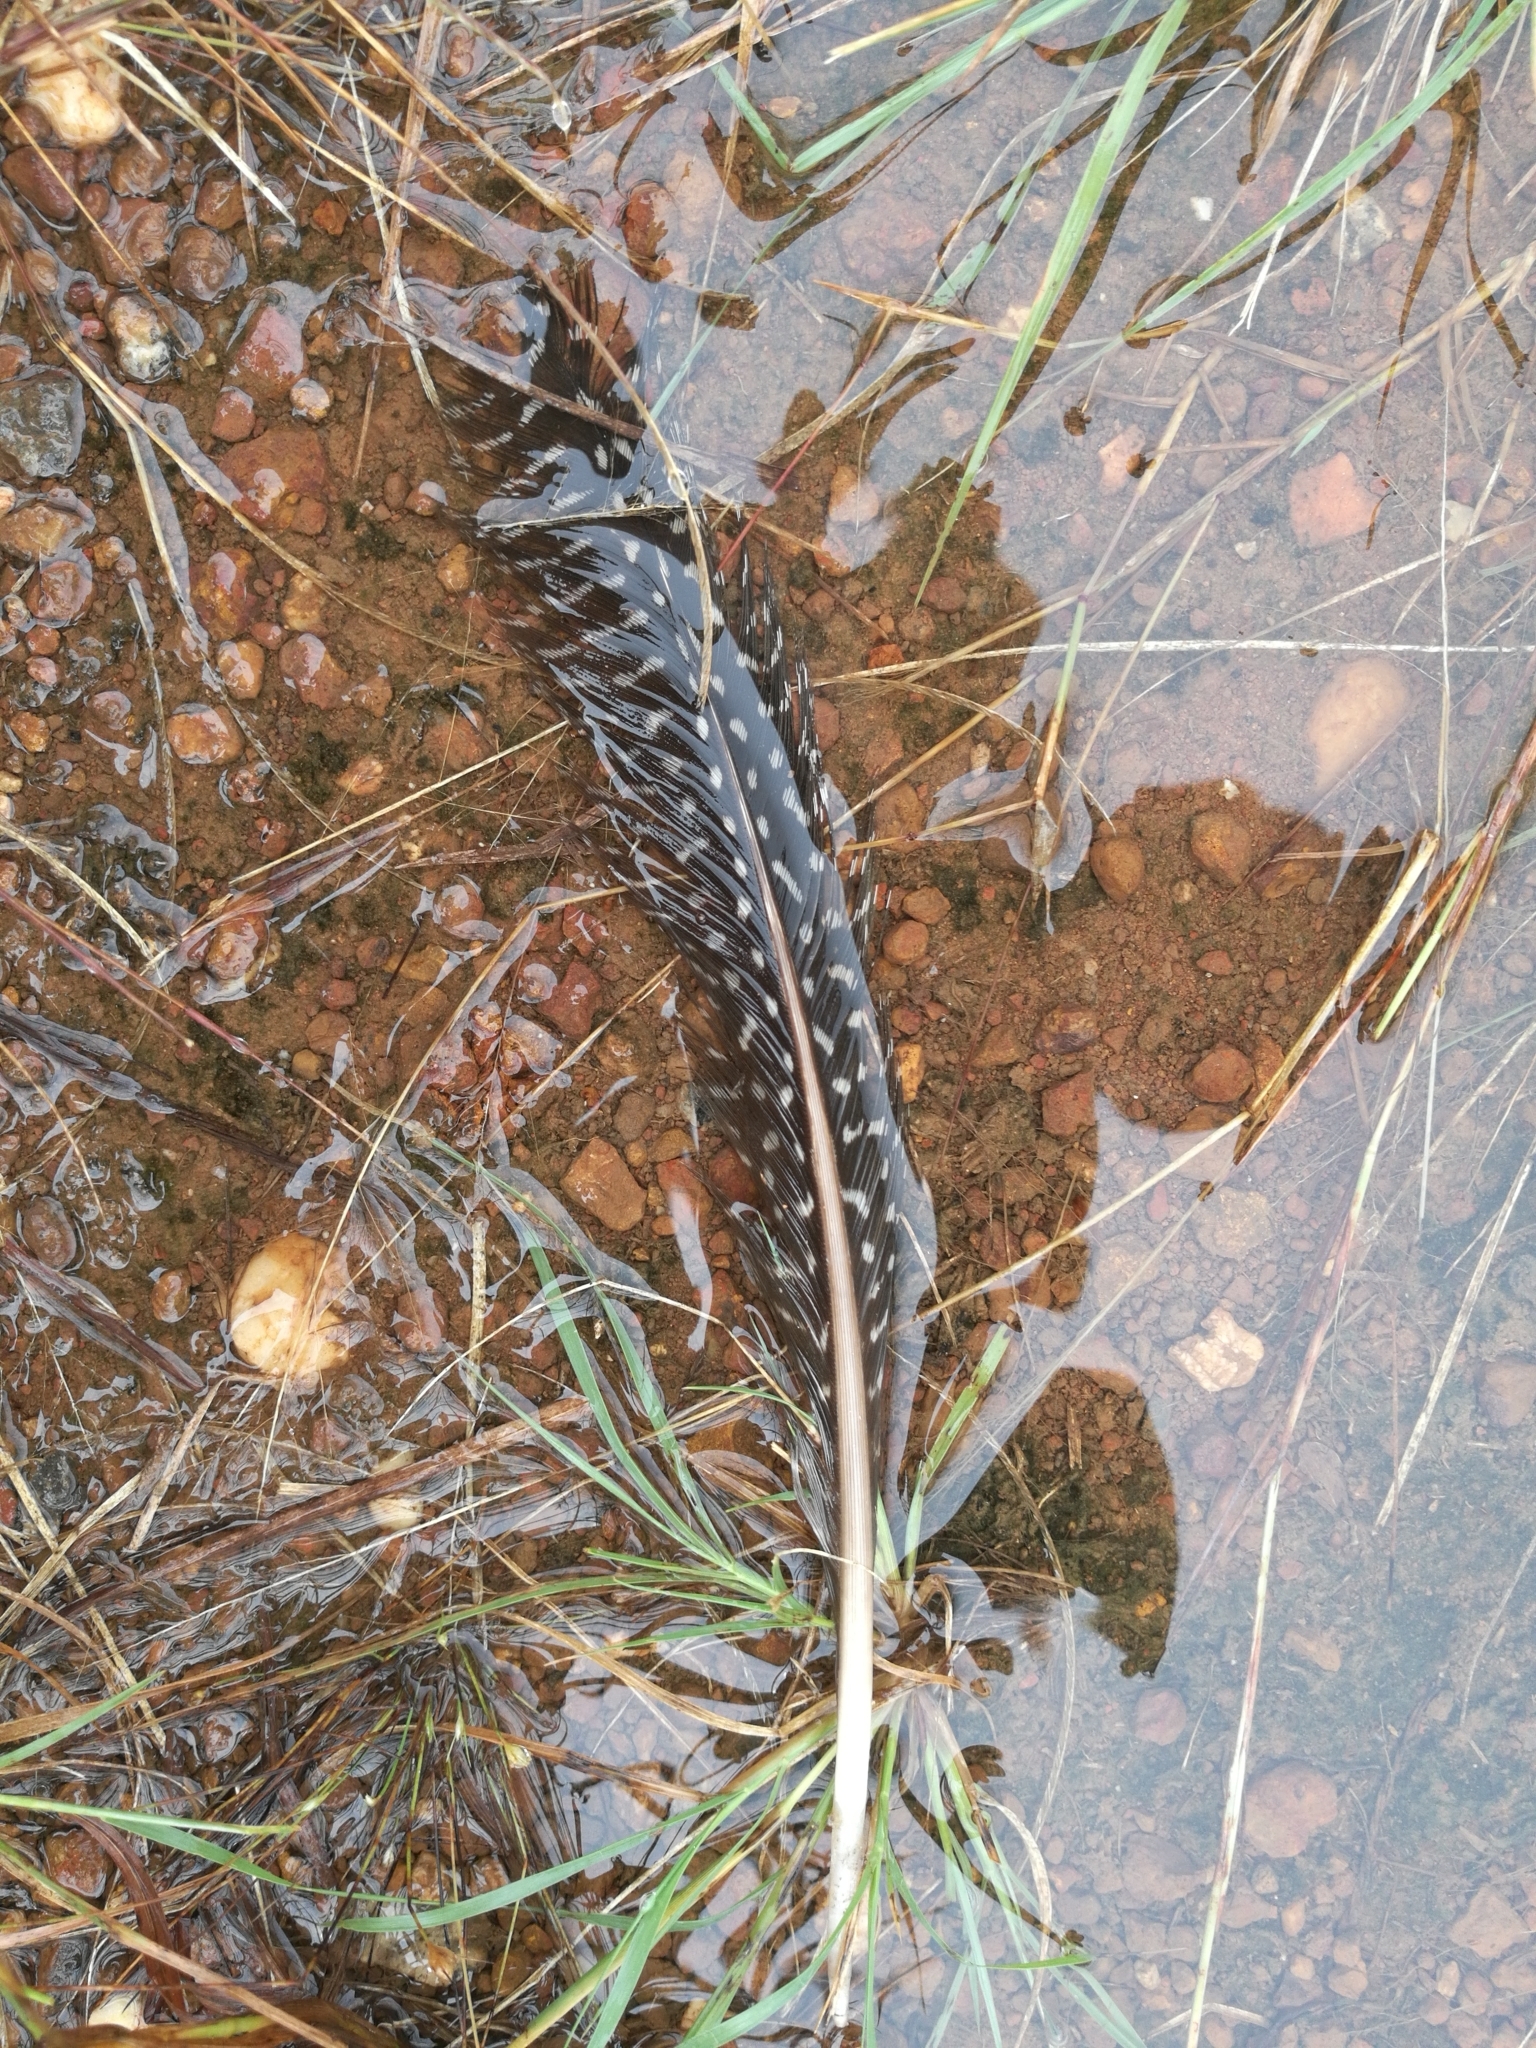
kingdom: Animalia
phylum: Chordata
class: Aves
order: Galliformes
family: Numididae
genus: Numida
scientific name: Numida meleagris
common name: Helmeted guineafowl
